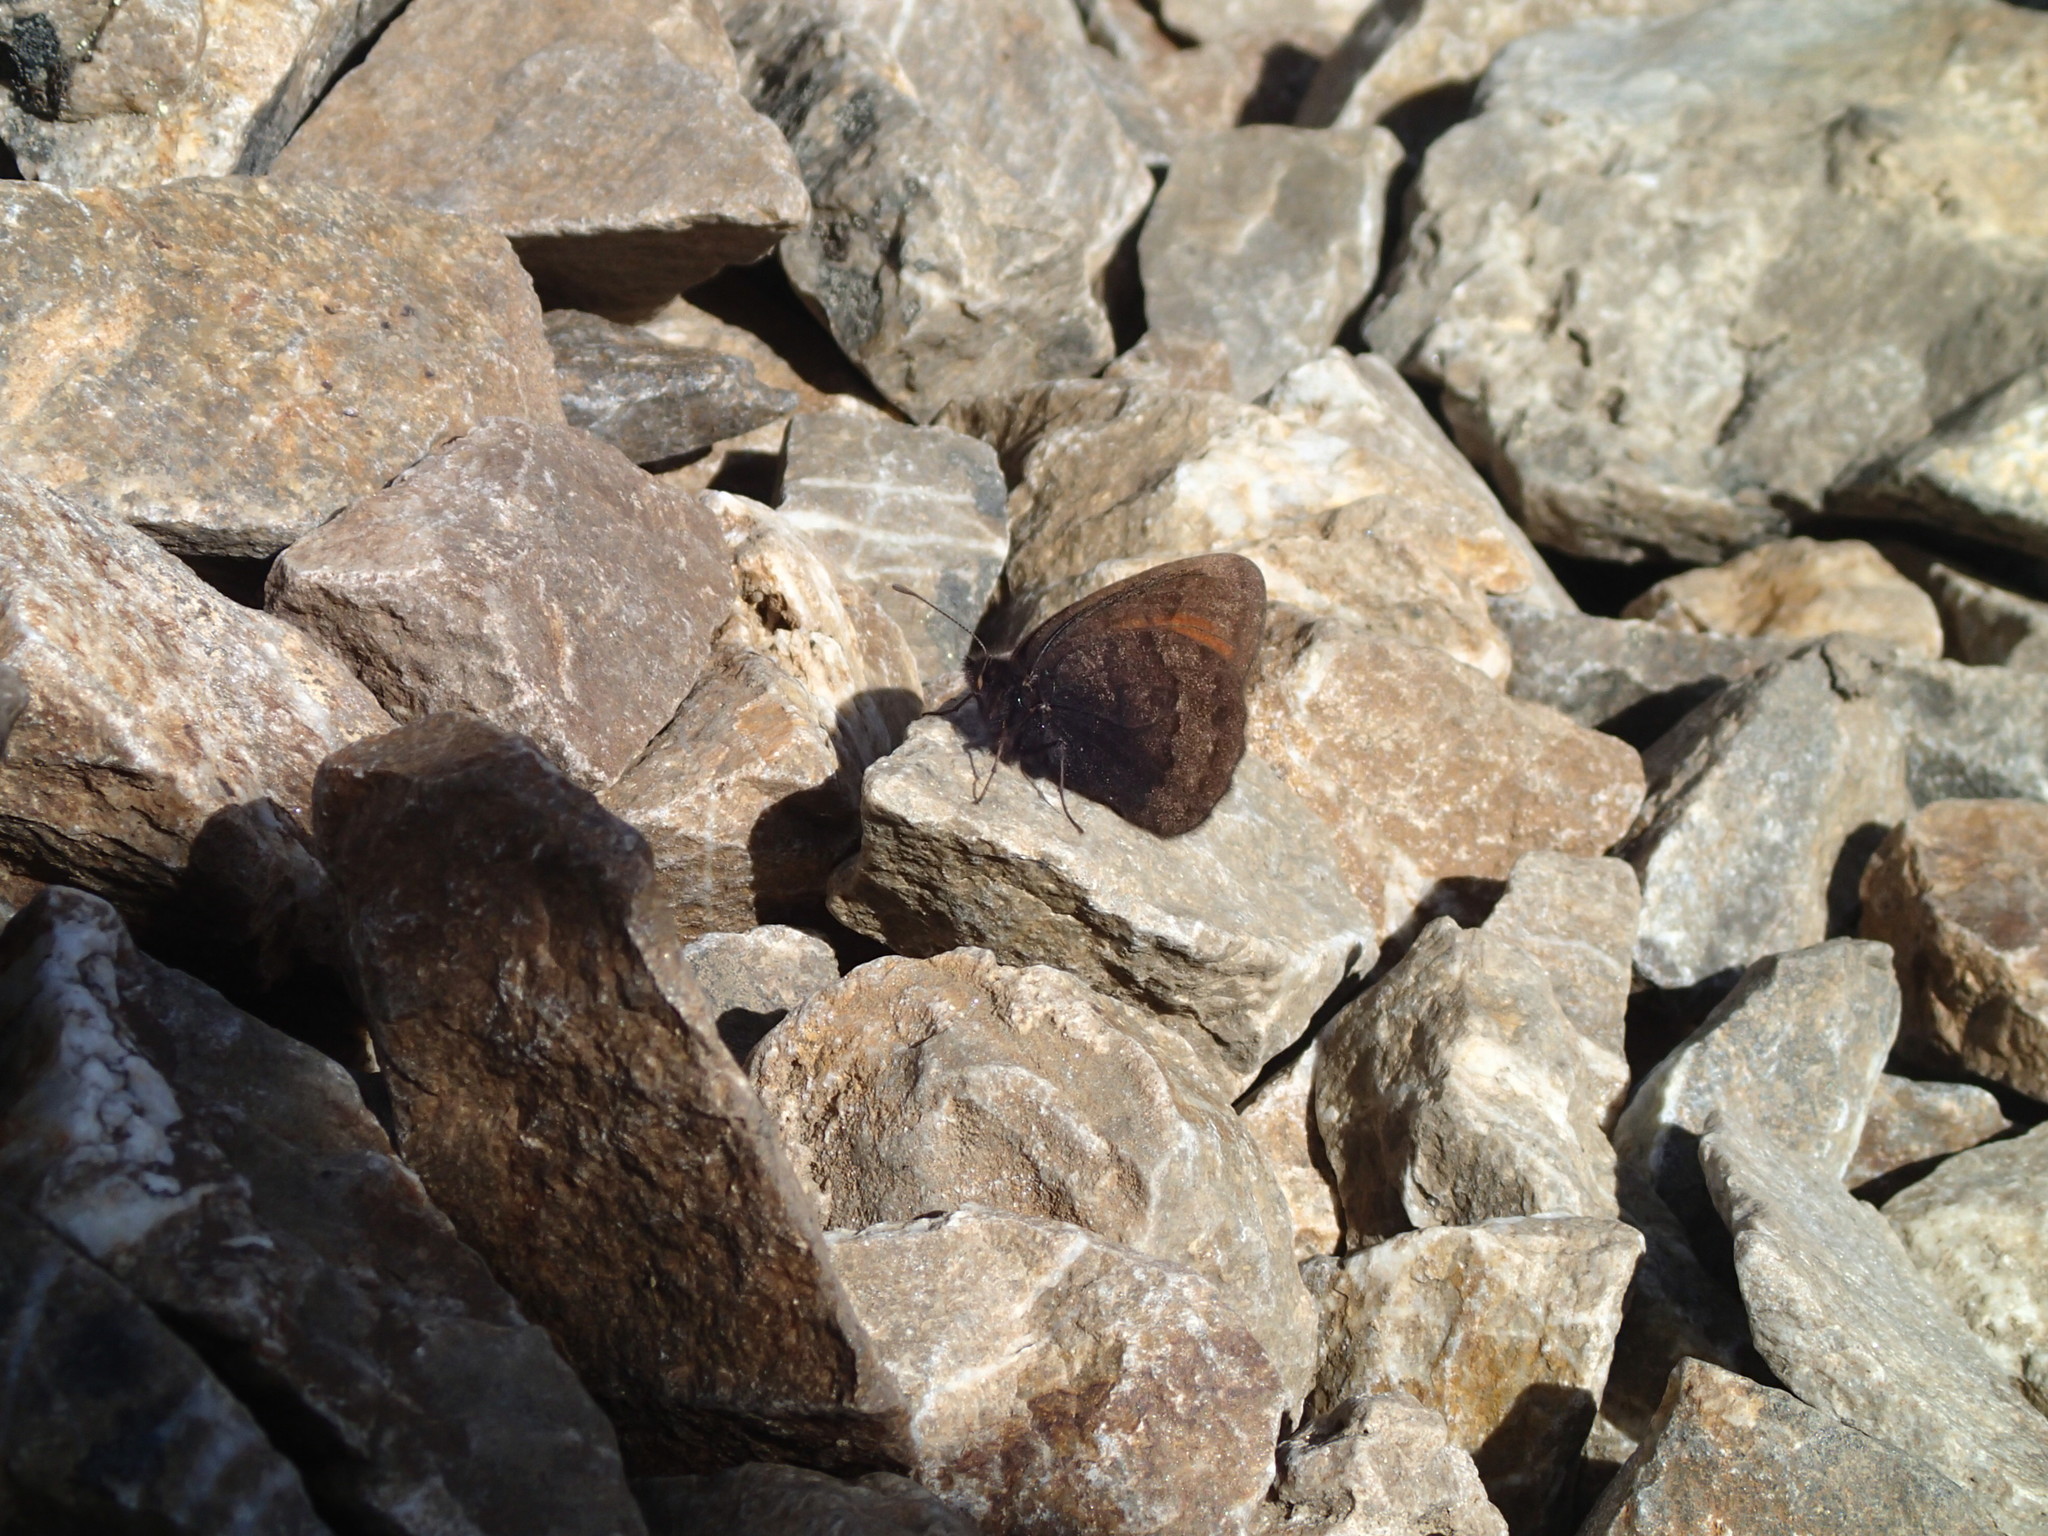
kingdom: Animalia
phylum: Arthropoda
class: Insecta
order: Lepidoptera
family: Nymphalidae
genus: Erebia
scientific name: Erebia fasciata
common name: Banded alpine
